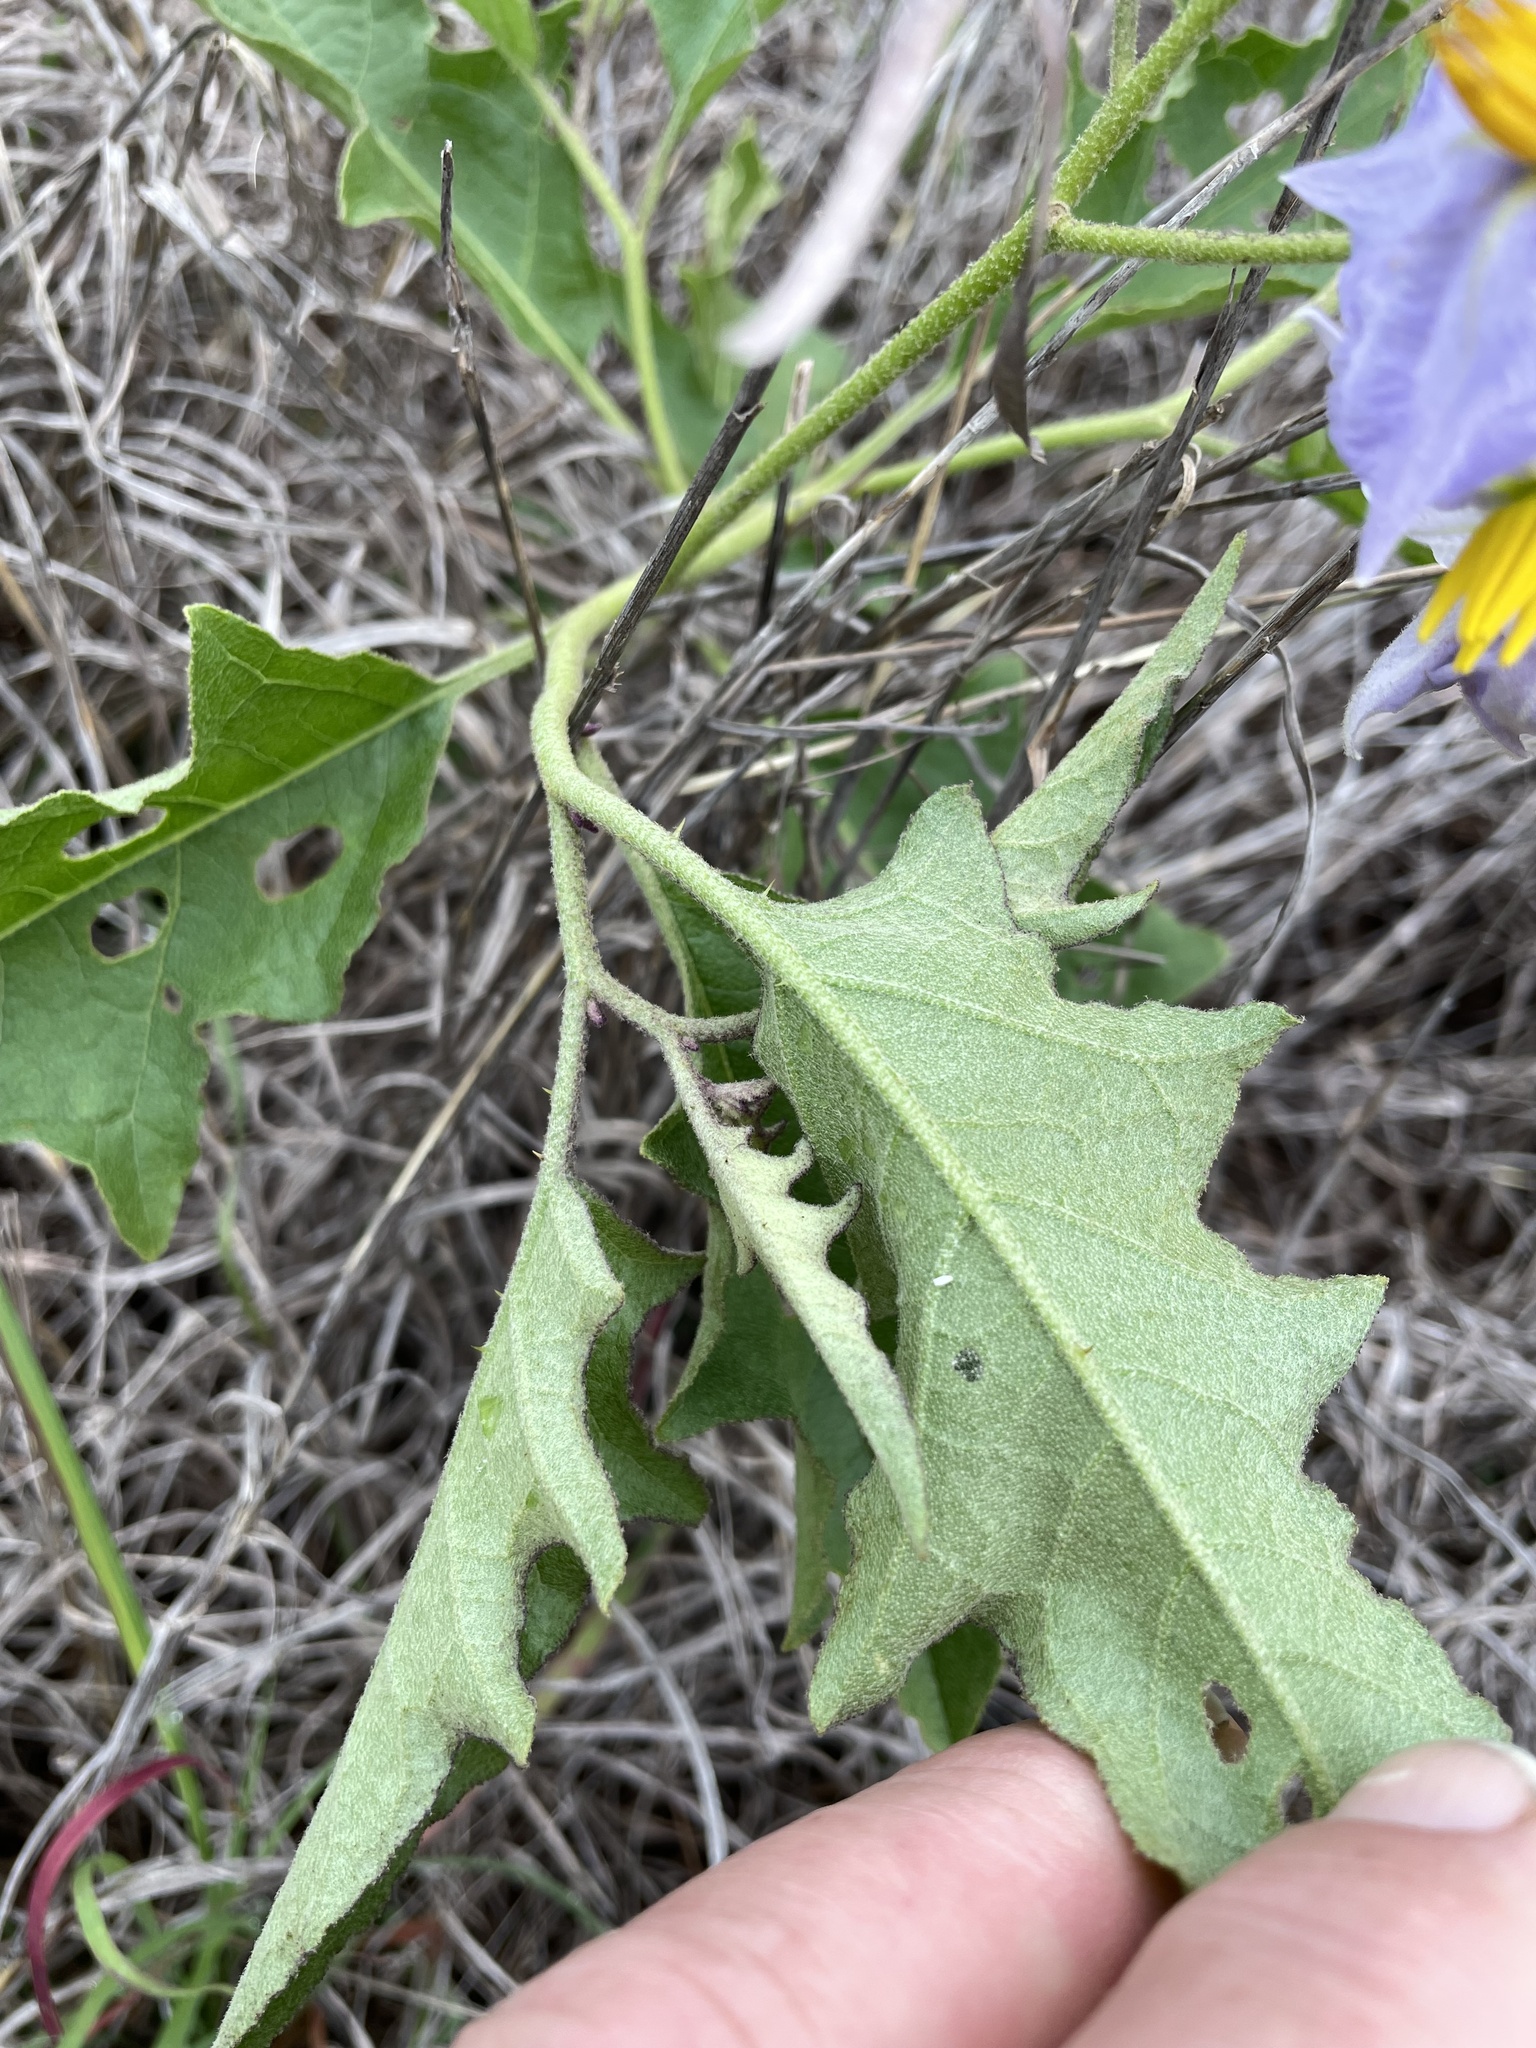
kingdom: Plantae
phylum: Tracheophyta
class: Magnoliopsida
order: Solanales
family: Solanaceae
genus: Solanum
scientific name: Solanum dimidiatum
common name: Carolina horse-nettle
